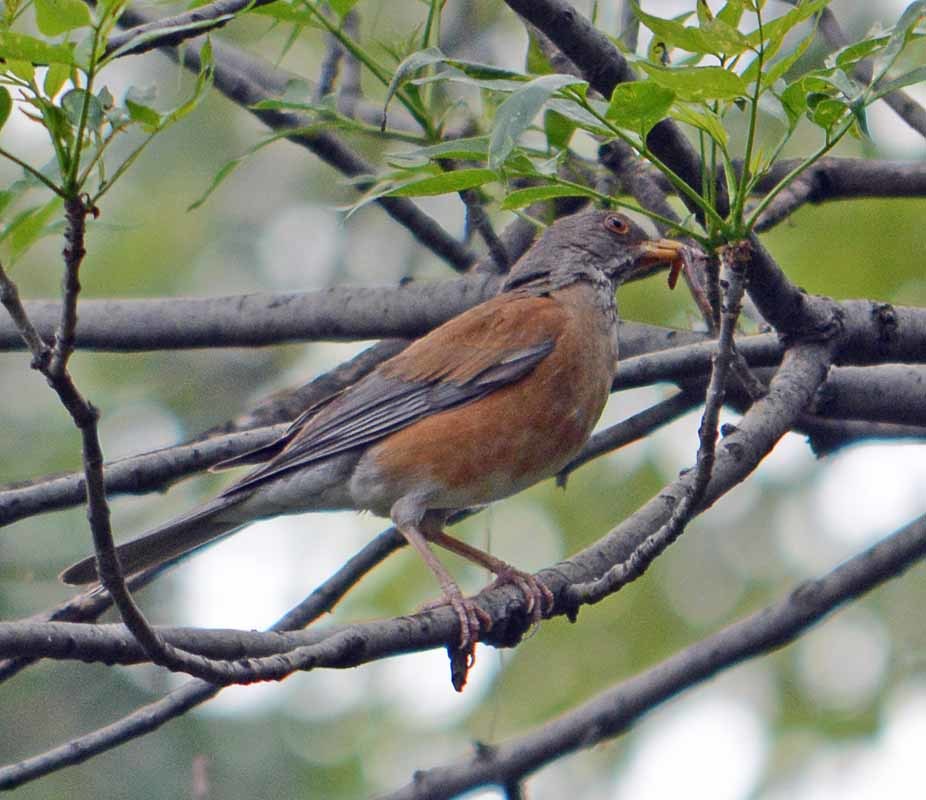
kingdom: Animalia
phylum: Chordata
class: Aves
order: Passeriformes
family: Turdidae
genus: Turdus
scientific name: Turdus rufopalliatus
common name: Rufous-backed robin
